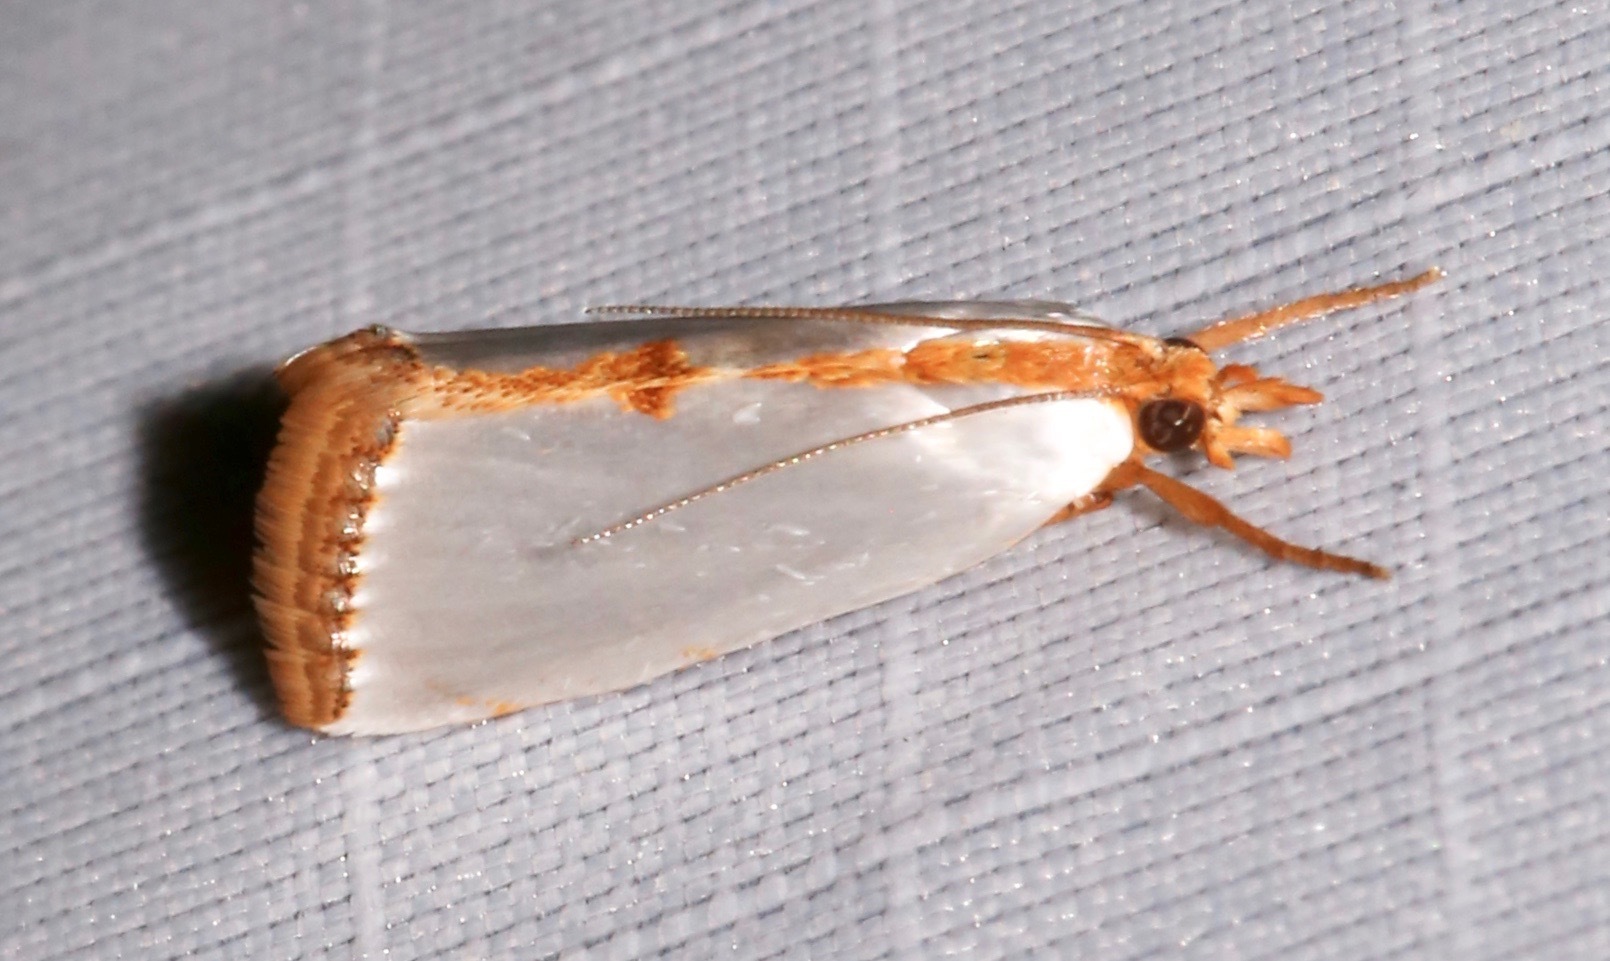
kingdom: Animalia
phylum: Arthropoda
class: Insecta
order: Lepidoptera
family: Crambidae
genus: Argyria
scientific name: Argyria
